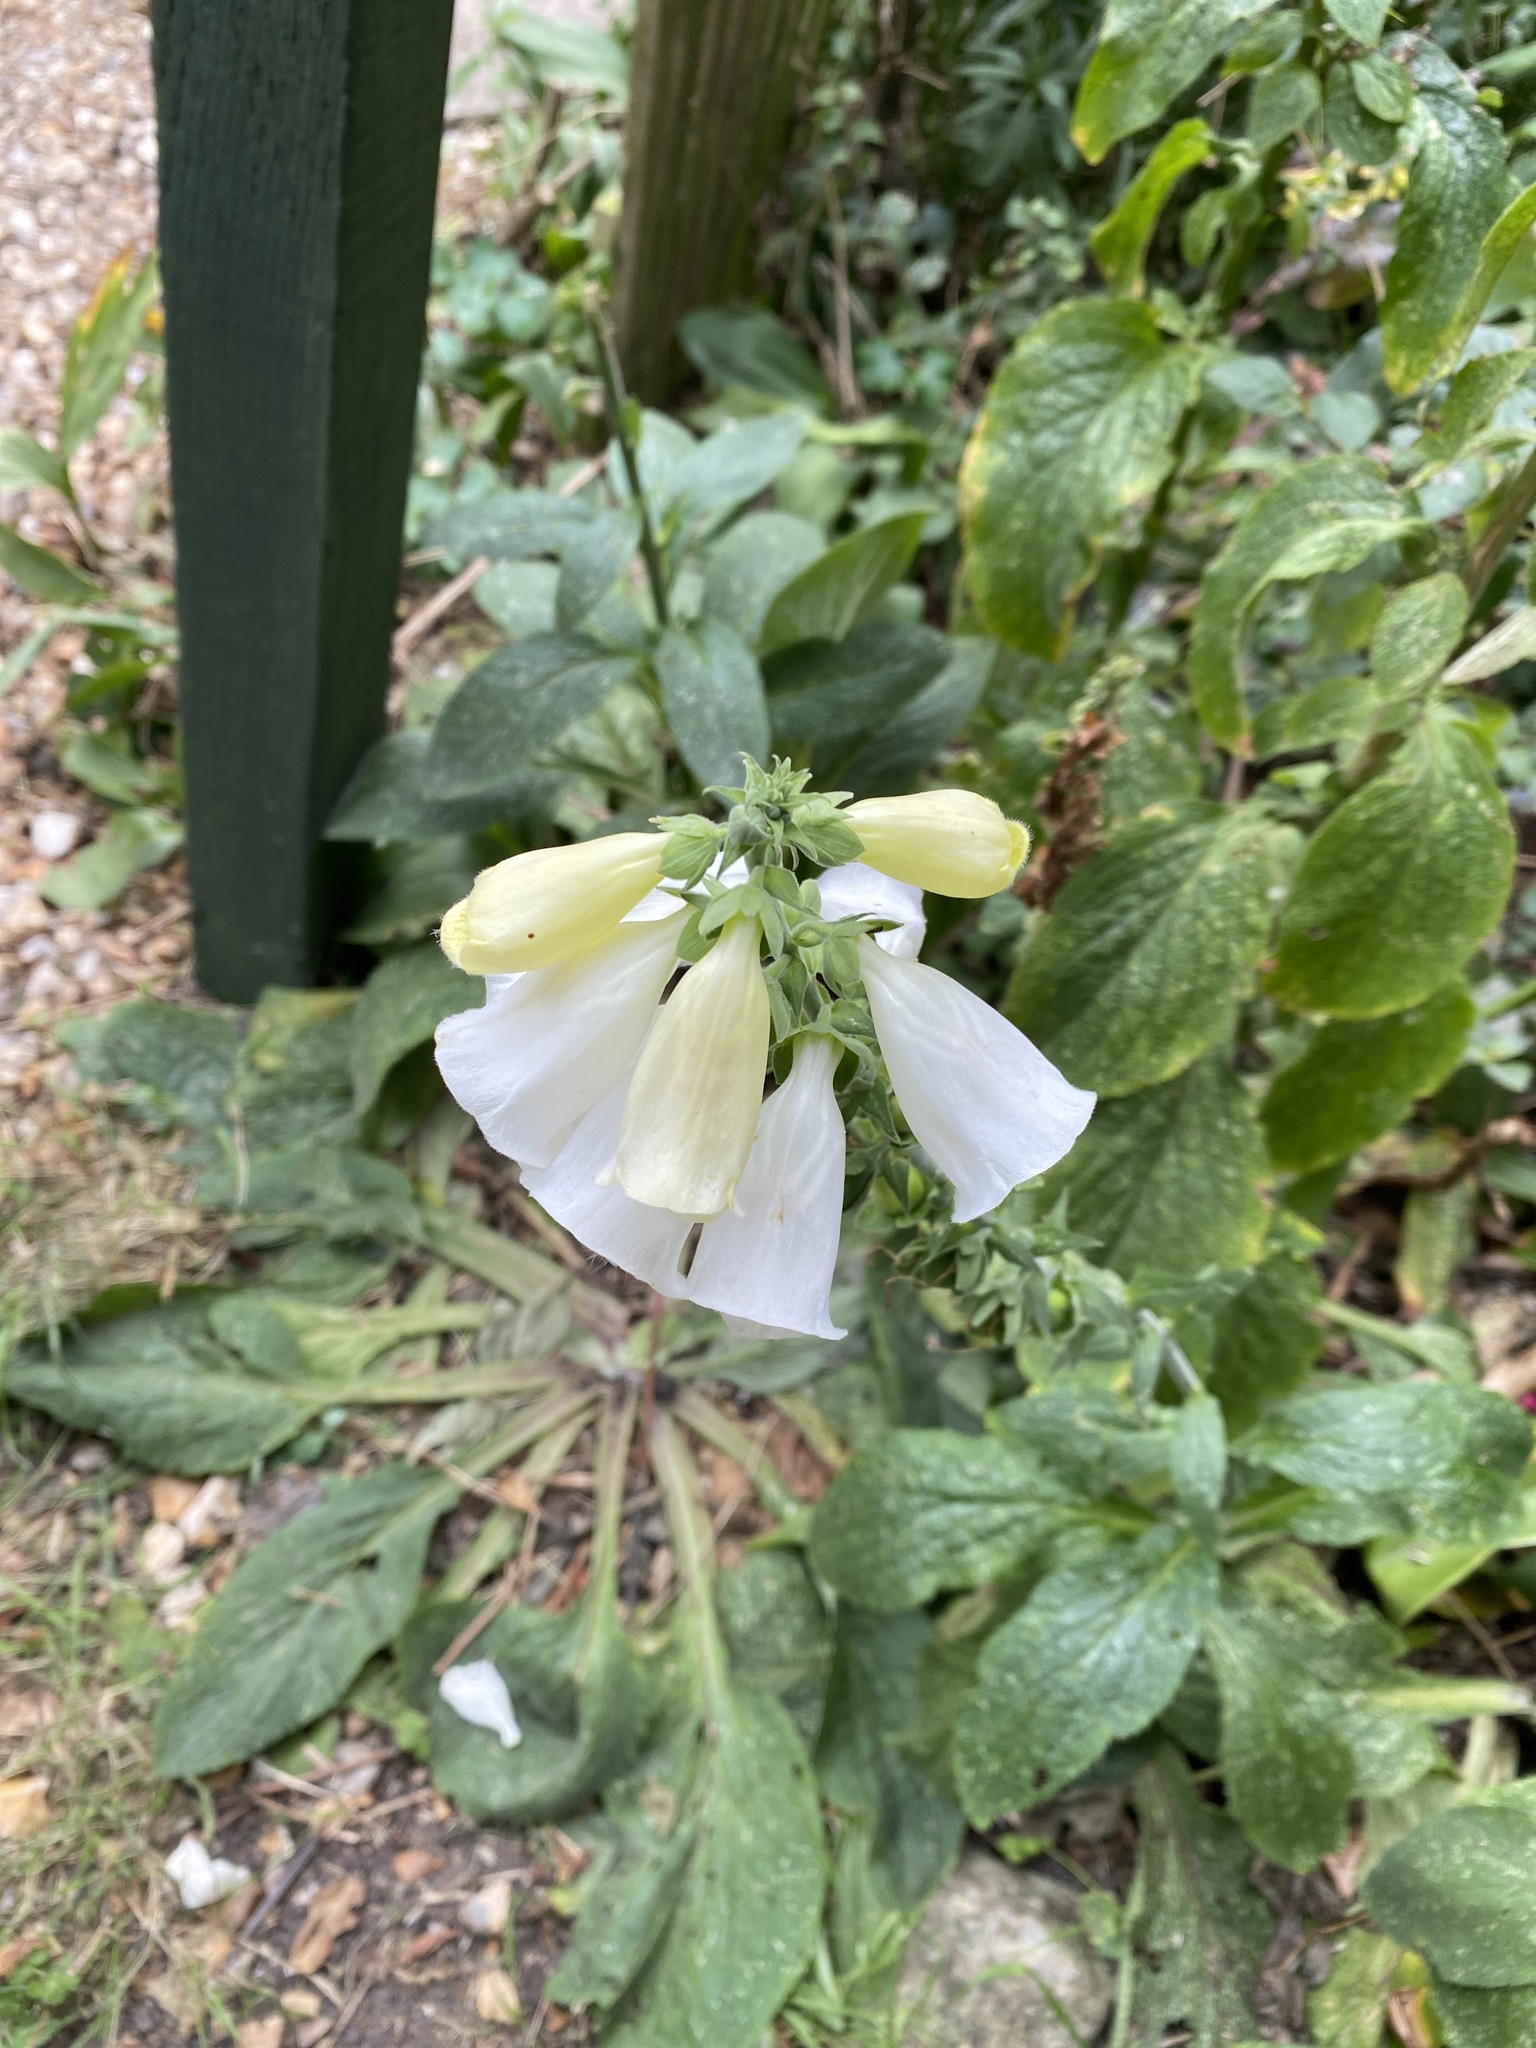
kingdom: Plantae
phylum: Tracheophyta
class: Magnoliopsida
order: Lamiales
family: Plantaginaceae
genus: Digitalis
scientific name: Digitalis purpurea
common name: Foxglove
